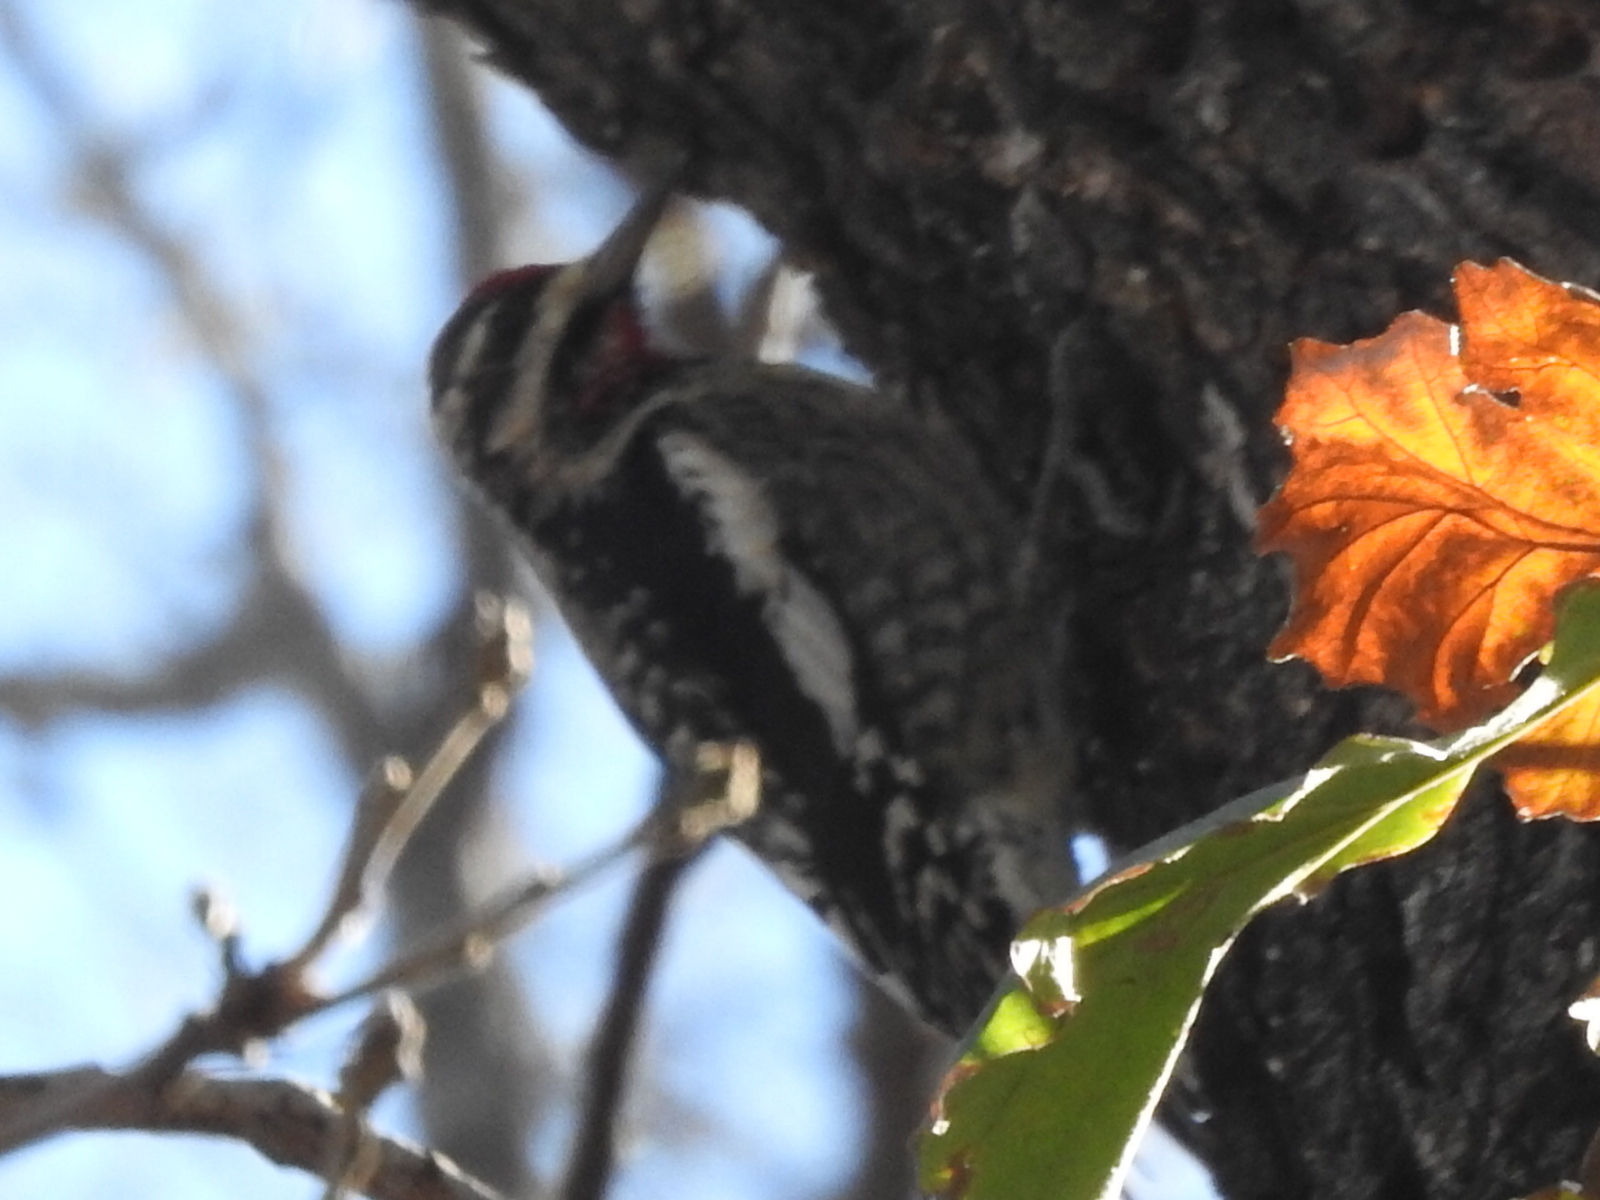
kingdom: Animalia
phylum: Chordata
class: Aves
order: Piciformes
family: Picidae
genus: Sphyrapicus
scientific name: Sphyrapicus varius
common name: Yellow-bellied sapsucker
